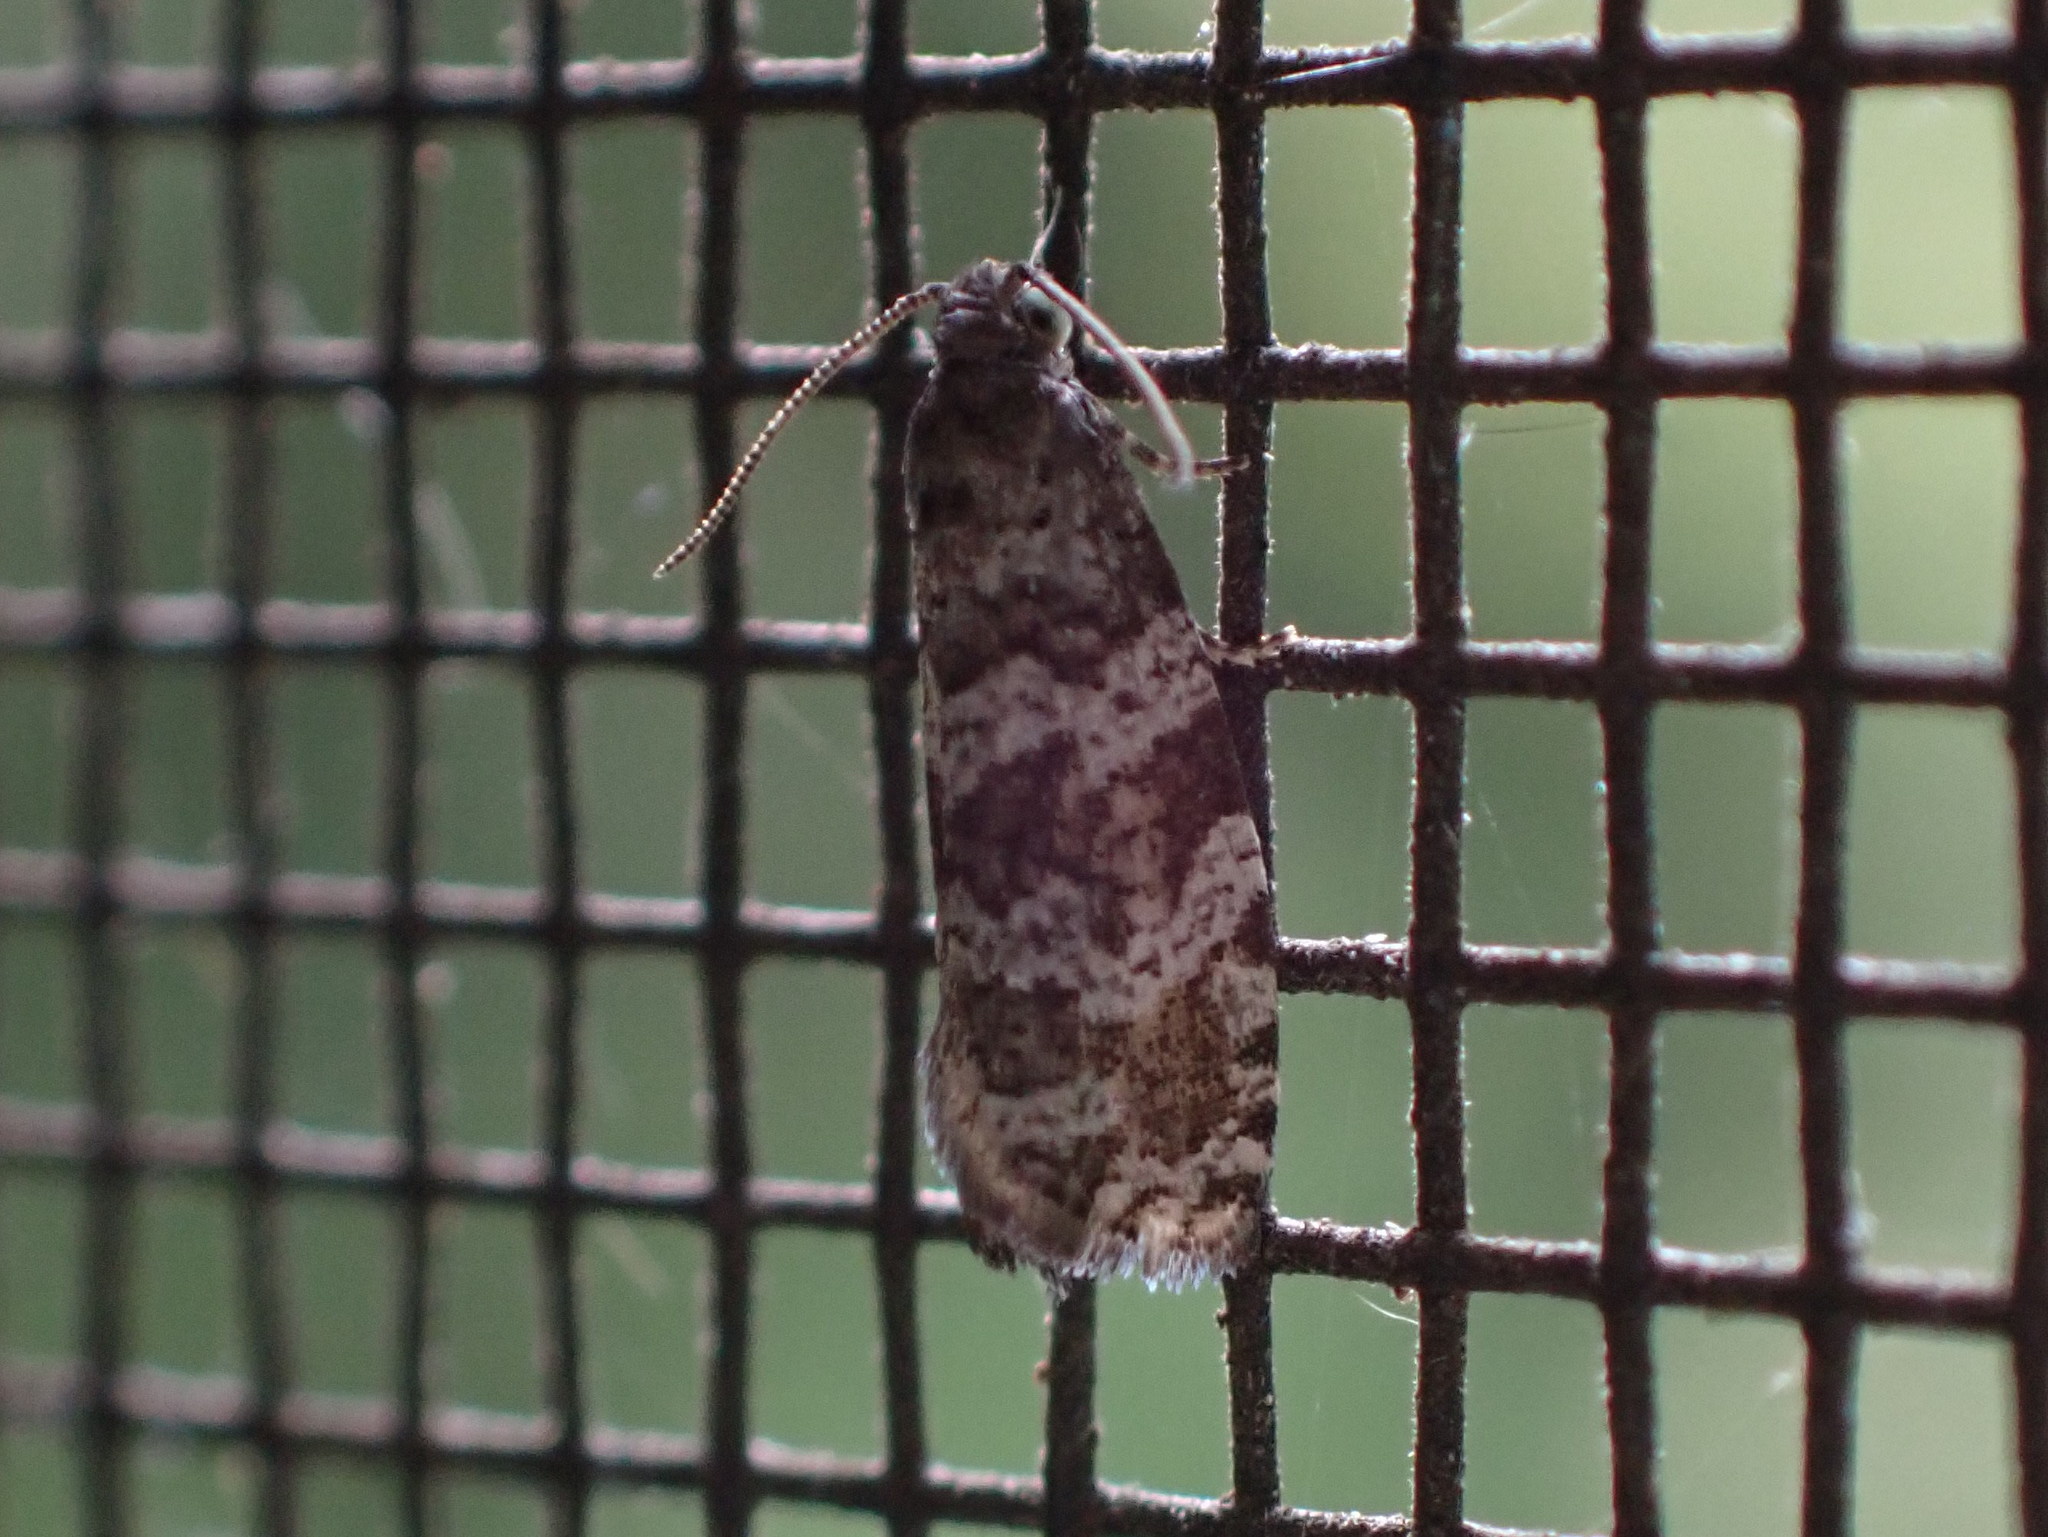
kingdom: Animalia
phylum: Arthropoda
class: Insecta
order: Lepidoptera
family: Tortricidae
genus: Taniva
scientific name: Taniva albolineana
